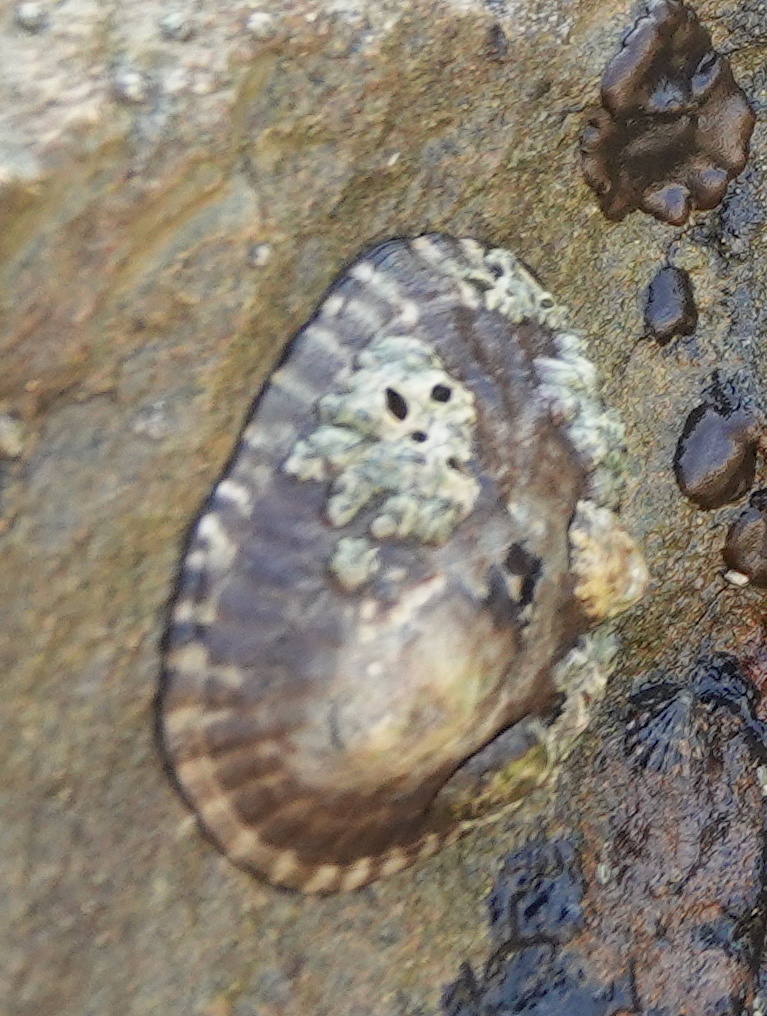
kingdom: Animalia
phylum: Mollusca
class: Gastropoda
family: Lottiidae
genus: Lottia
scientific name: Lottia gigantea
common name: Owl limpet
